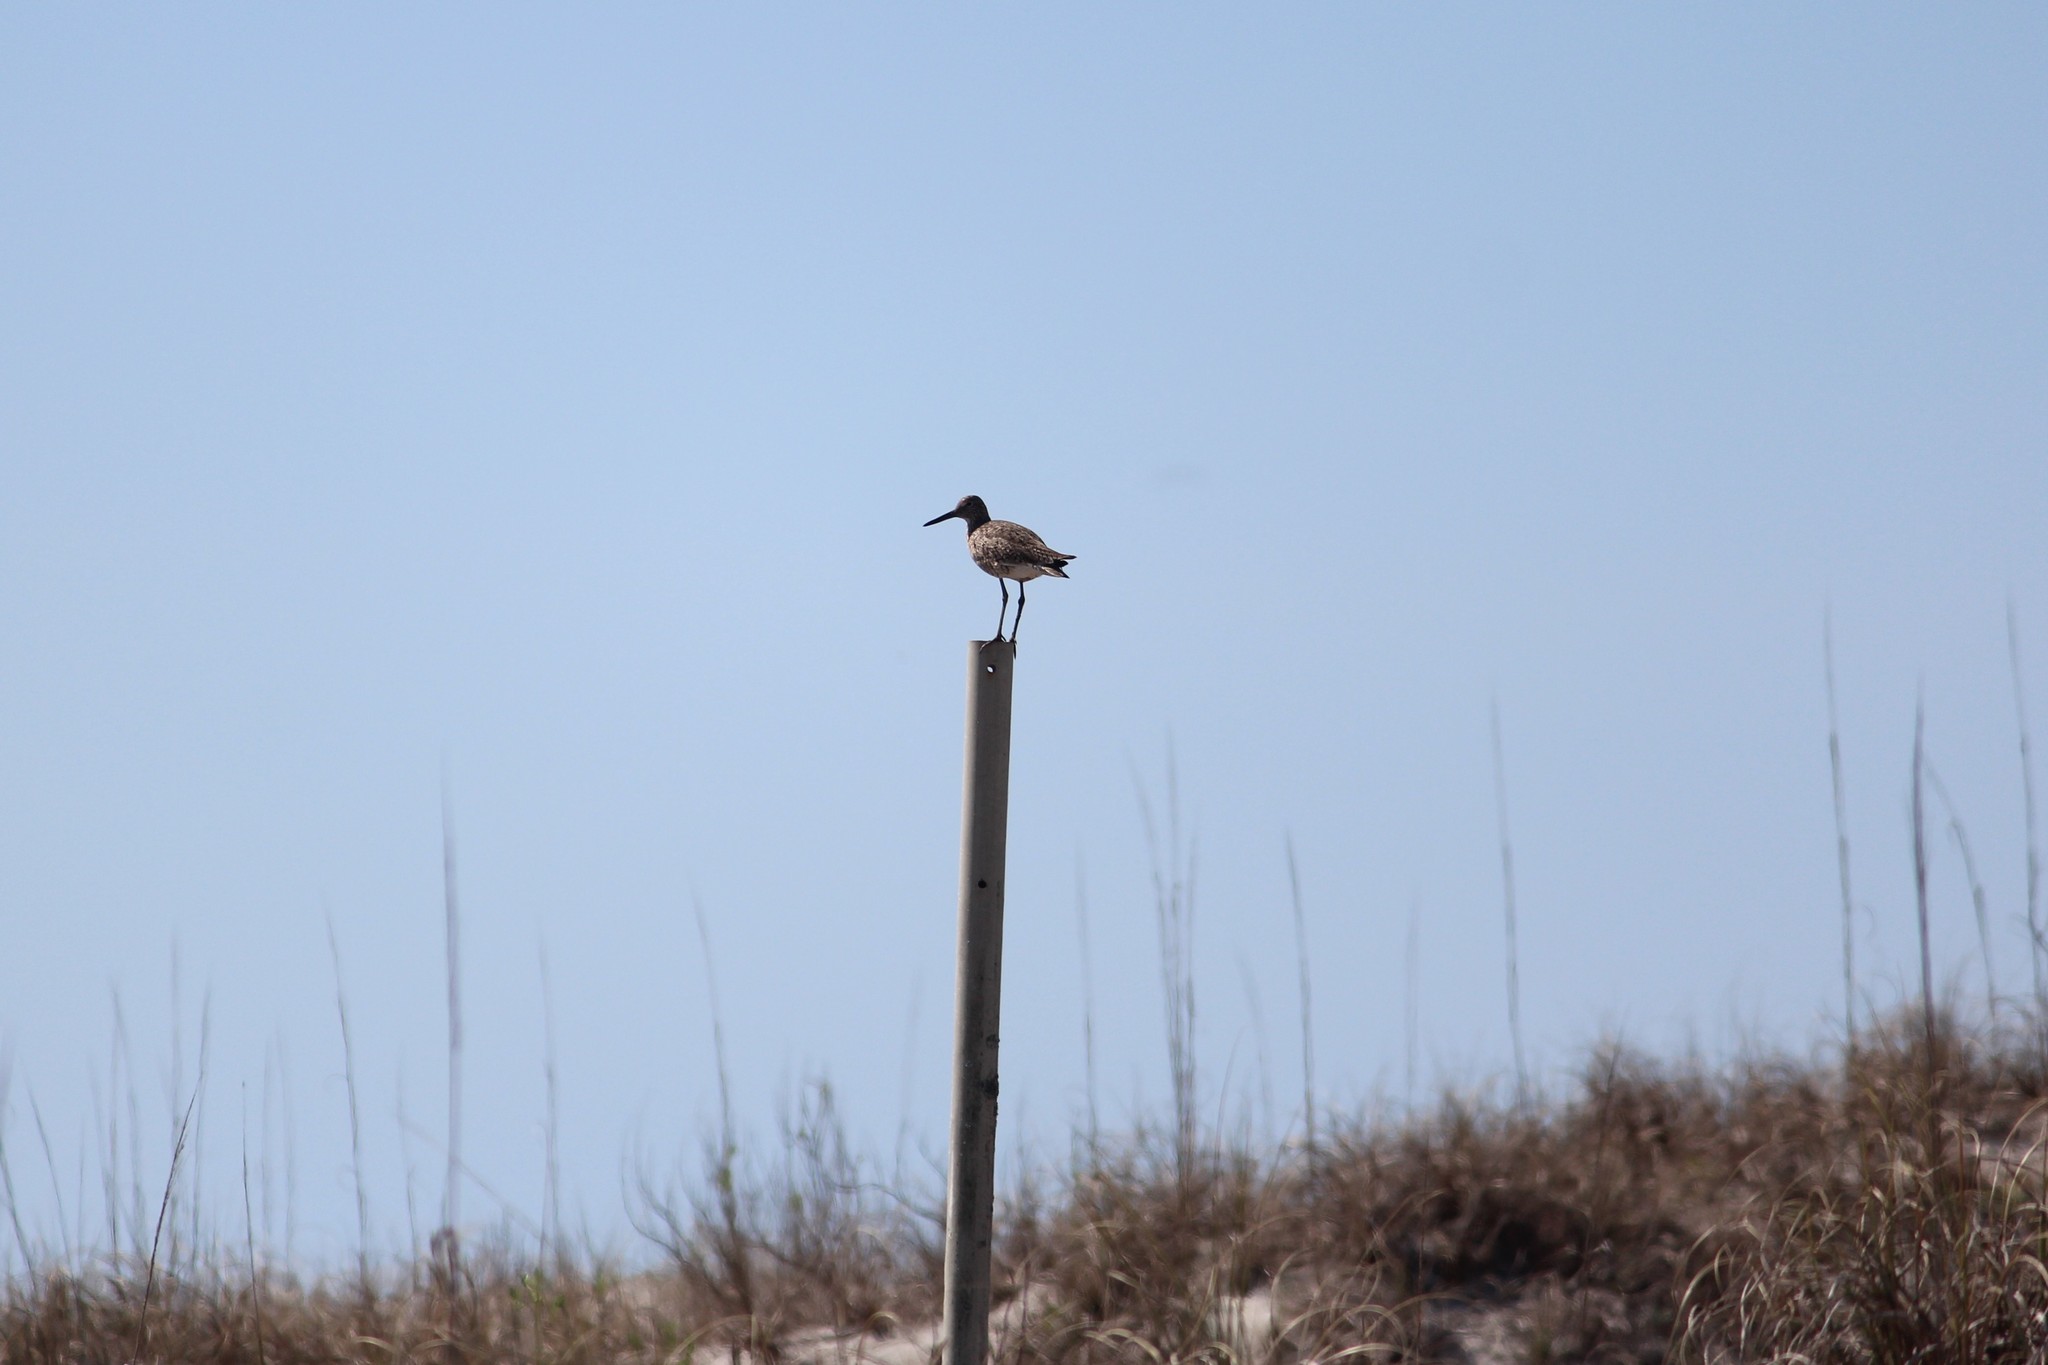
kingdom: Animalia
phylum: Chordata
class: Aves
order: Charadriiformes
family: Scolopacidae
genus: Tringa
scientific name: Tringa semipalmata
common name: Willet
